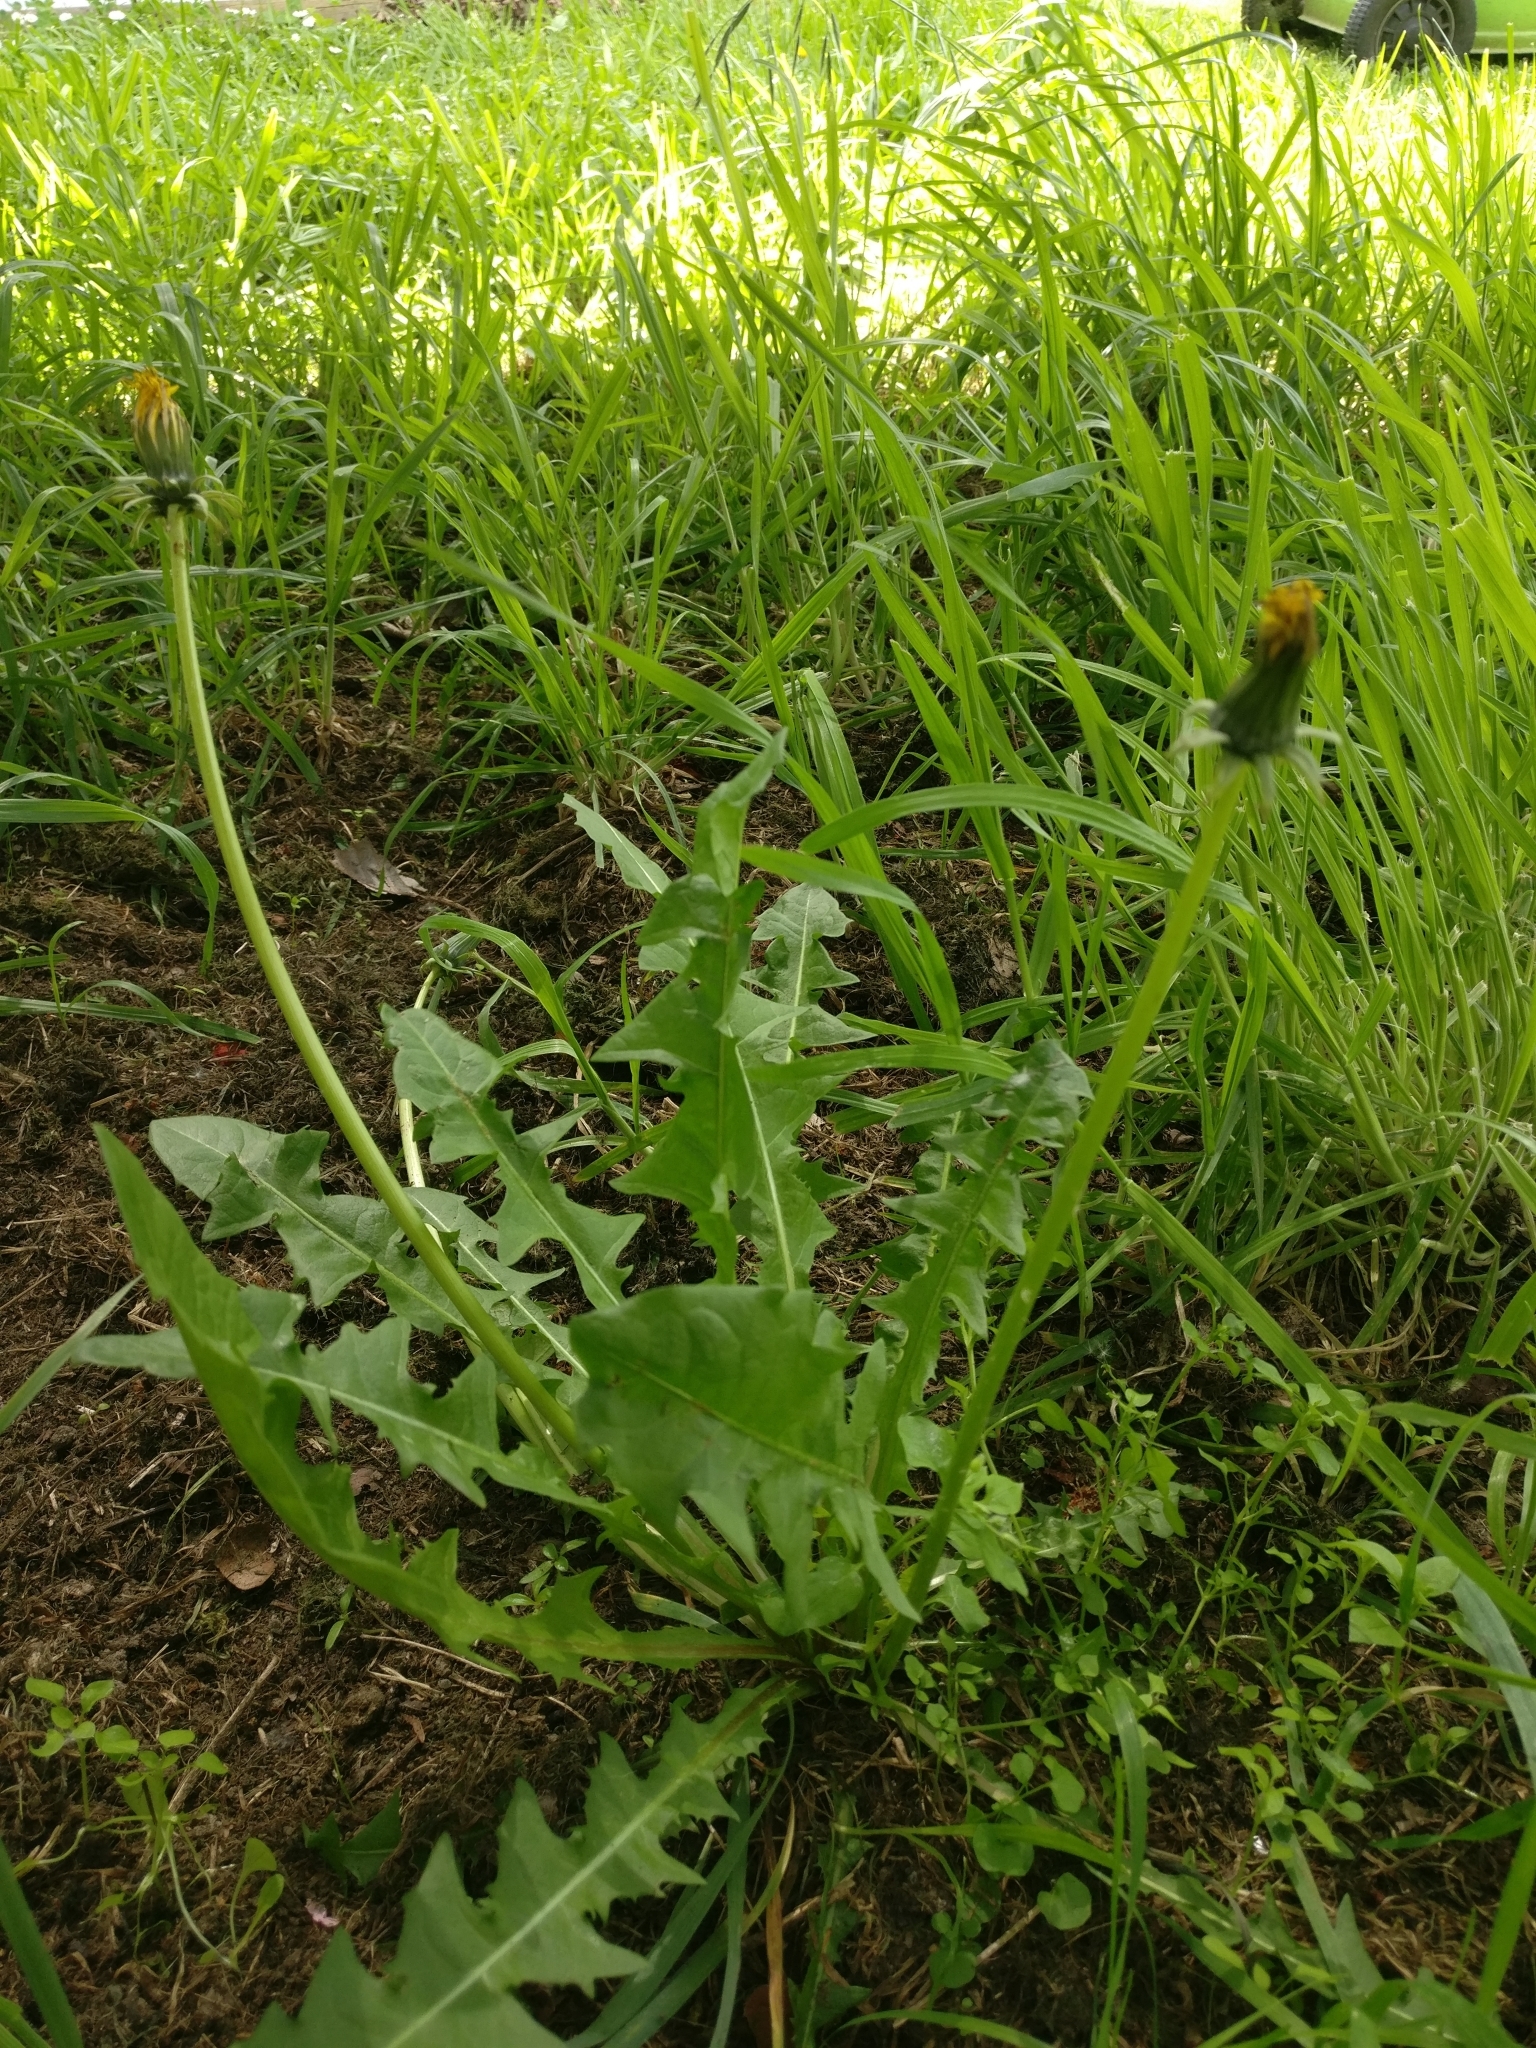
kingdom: Plantae
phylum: Tracheophyta
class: Magnoliopsida
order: Asterales
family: Asteraceae
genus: Taraxacum
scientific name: Taraxacum officinale
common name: Common dandelion
